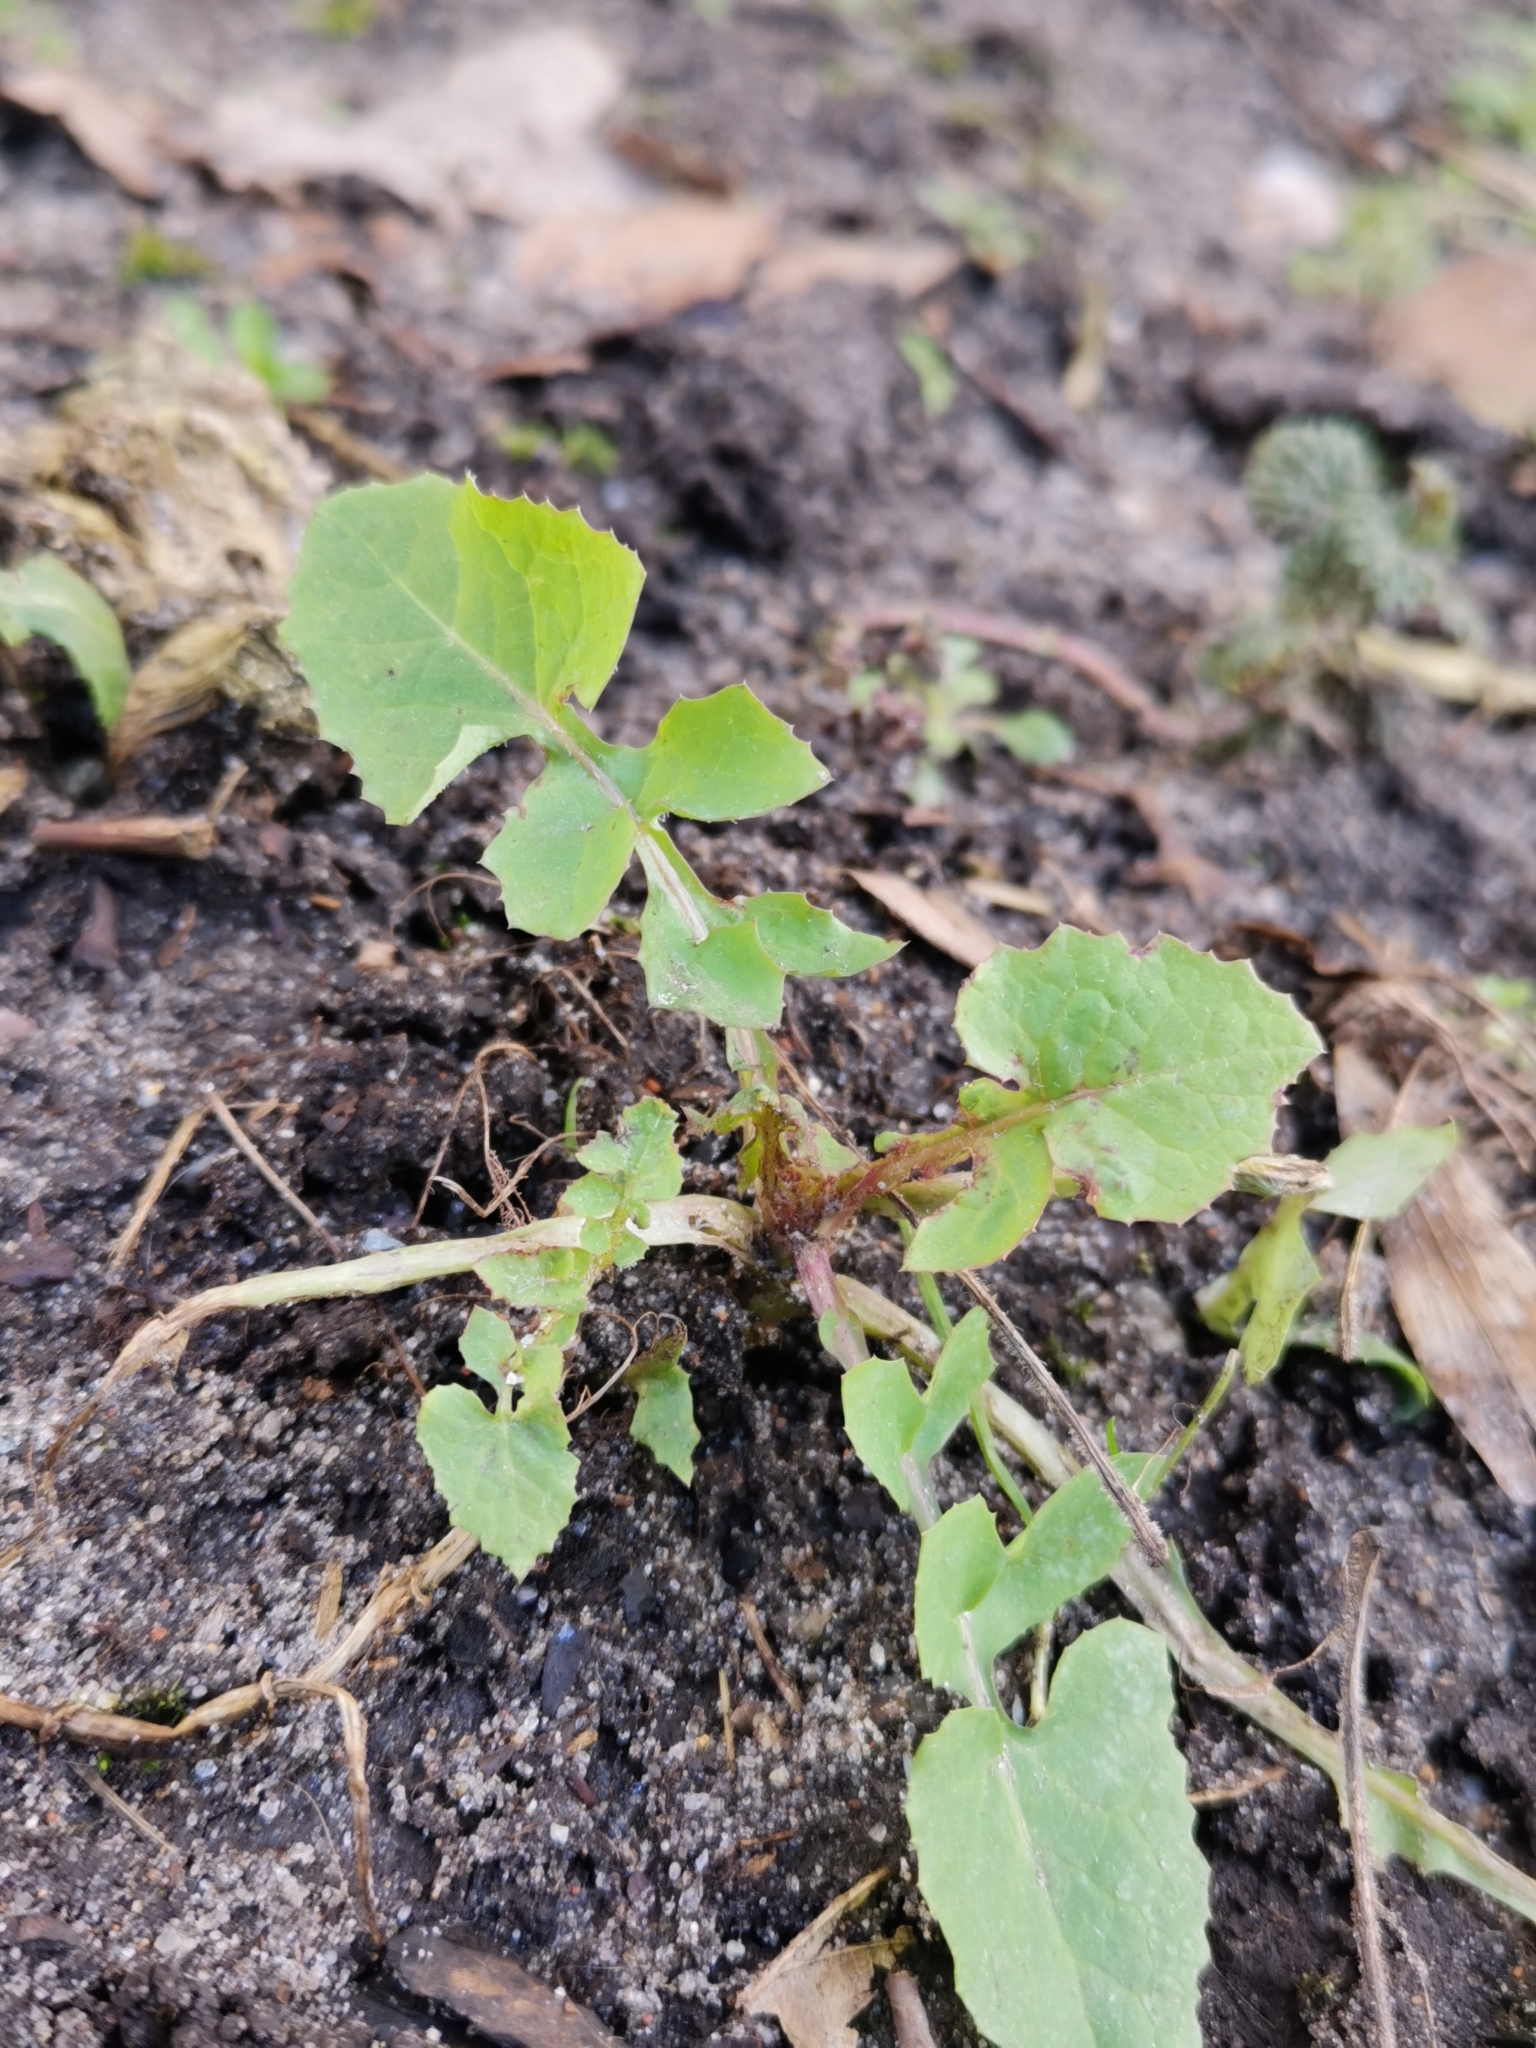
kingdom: Plantae
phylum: Tracheophyta
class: Magnoliopsida
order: Asterales
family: Asteraceae
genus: Sonchus
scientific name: Sonchus oleraceus
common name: Common sowthistle
